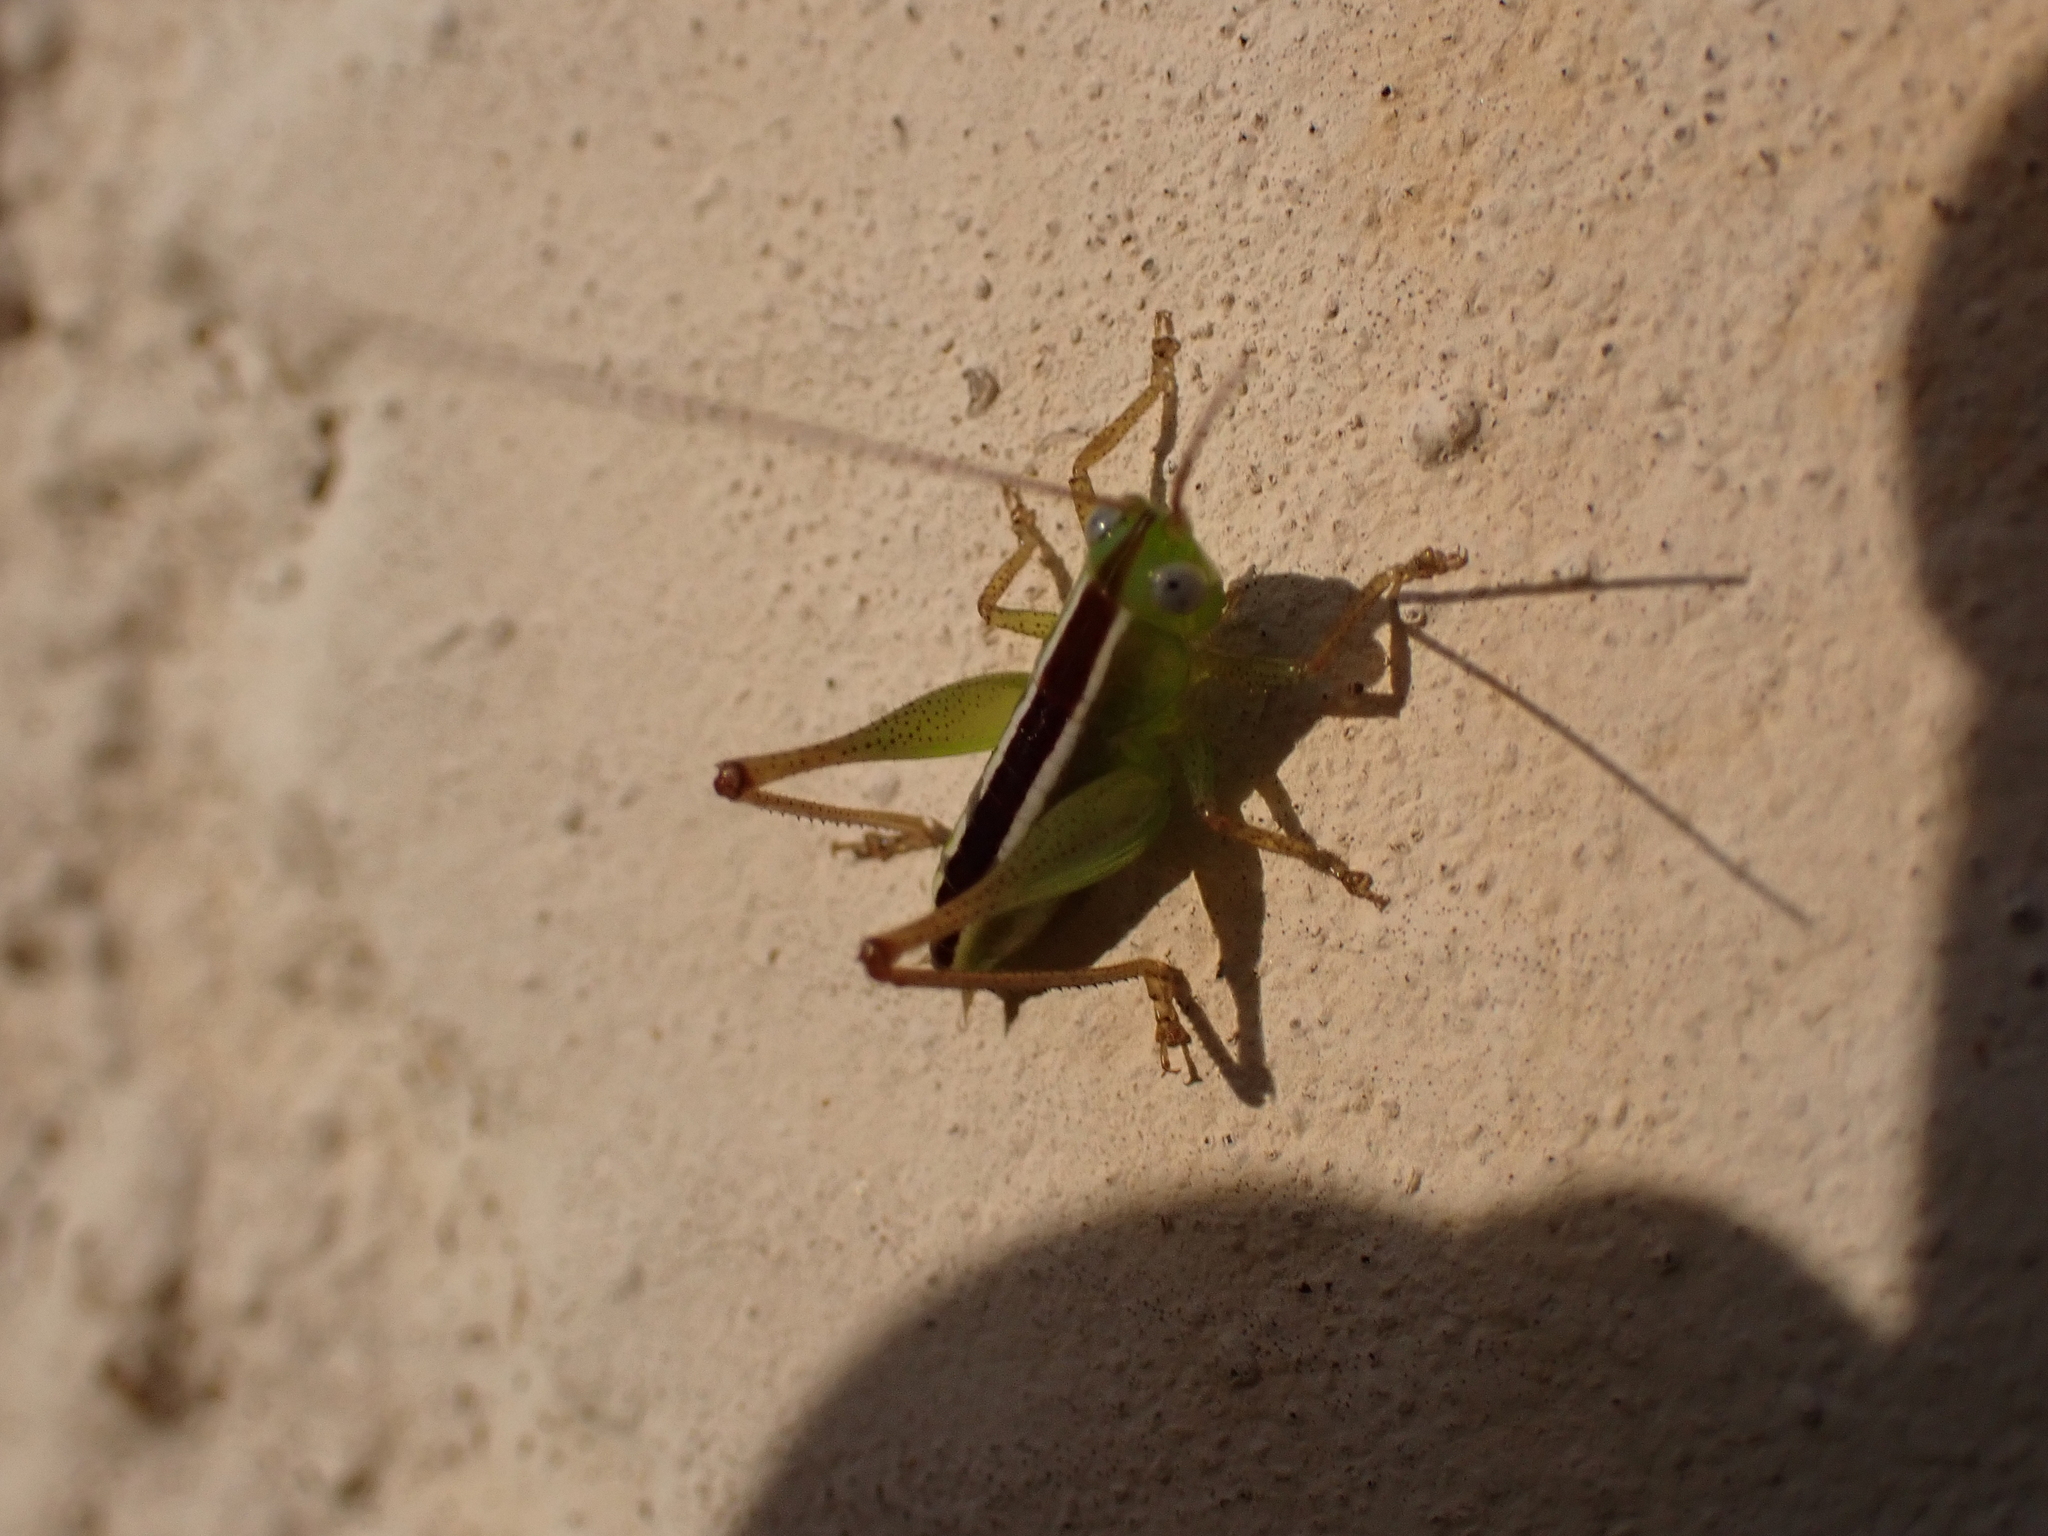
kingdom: Animalia
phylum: Arthropoda
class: Insecta
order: Orthoptera
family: Tettigoniidae
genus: Odontoxiphidium
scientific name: Odontoxiphidium apterum
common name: Wingless meadow katydid
